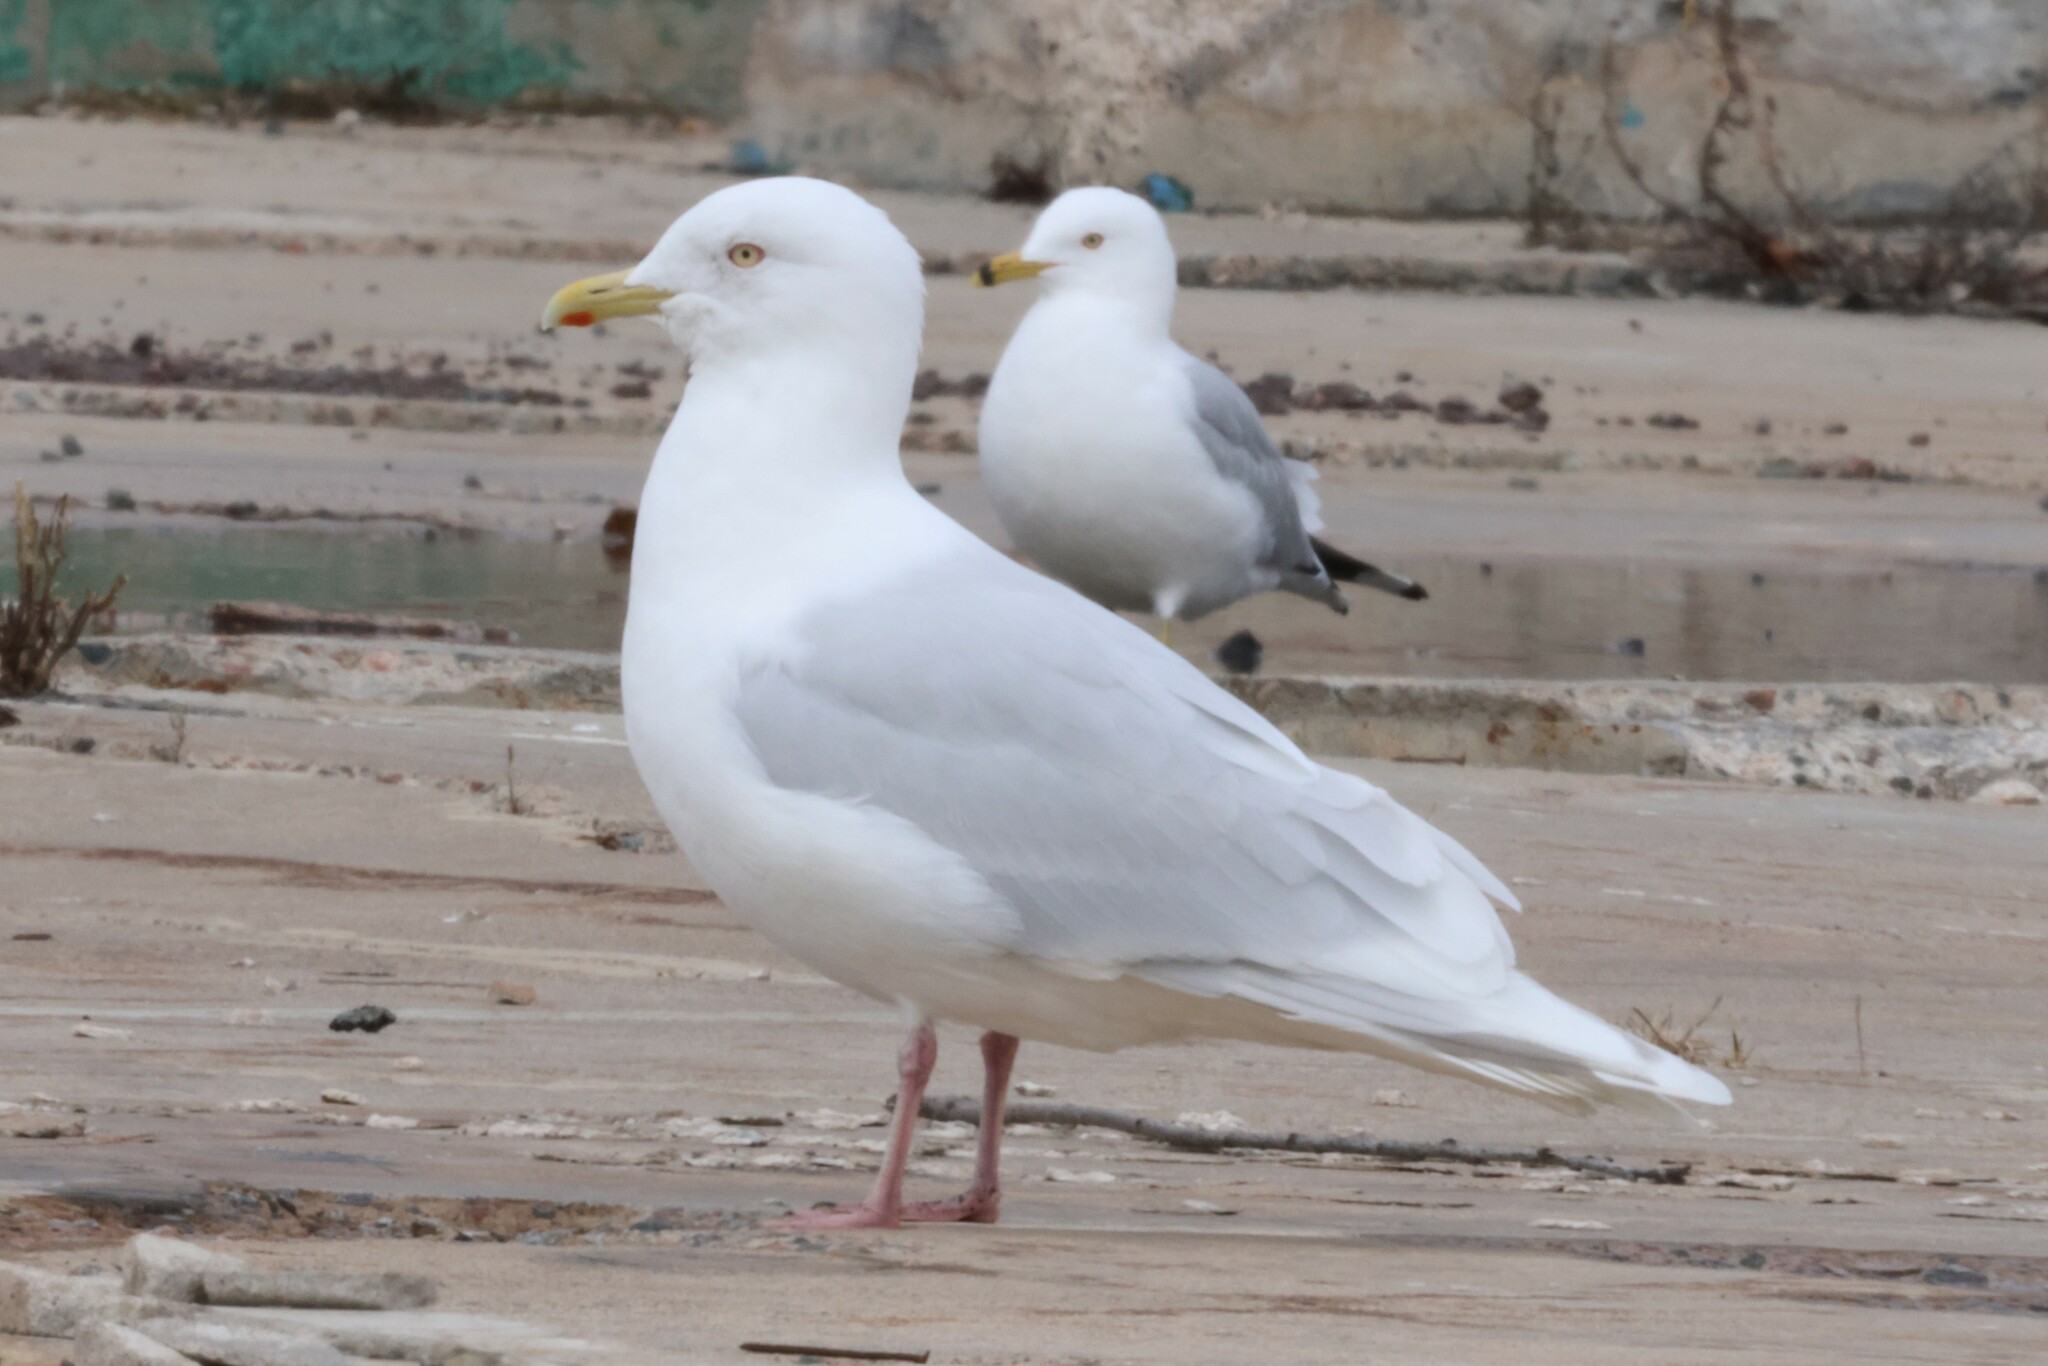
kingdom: Animalia
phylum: Chordata
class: Aves
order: Charadriiformes
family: Laridae
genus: Larus
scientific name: Larus glaucoides
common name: Iceland gull
